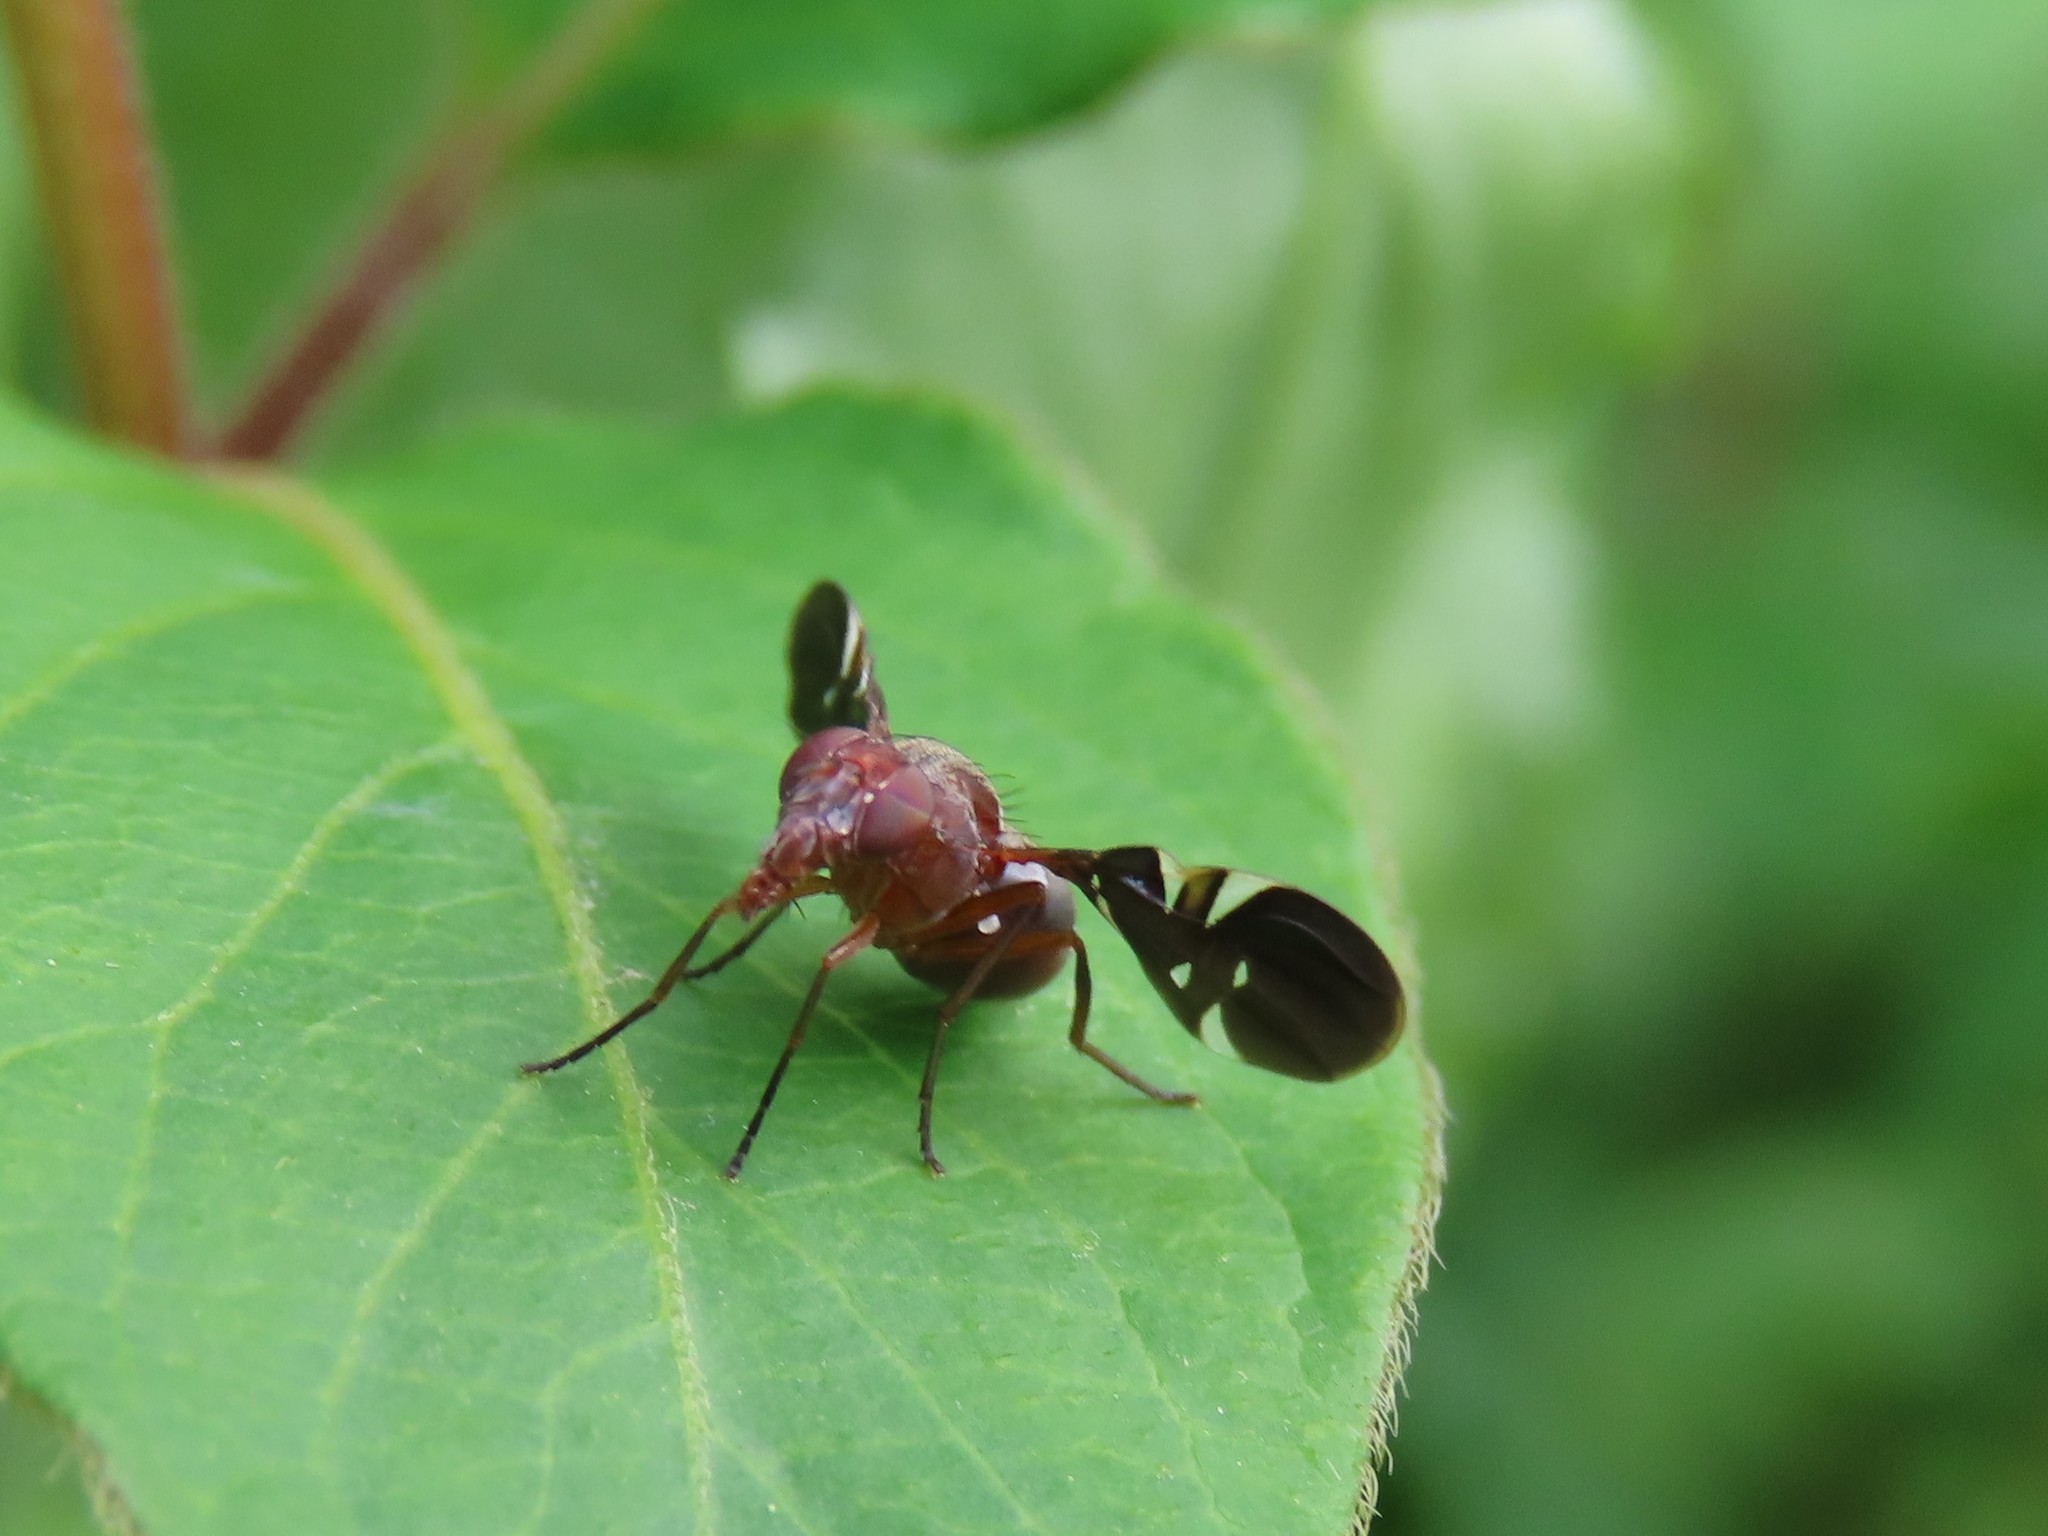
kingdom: Animalia
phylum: Arthropoda
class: Insecta
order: Diptera
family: Ulidiidae
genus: Delphinia
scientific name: Delphinia picta
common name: Common picture-winged fly
